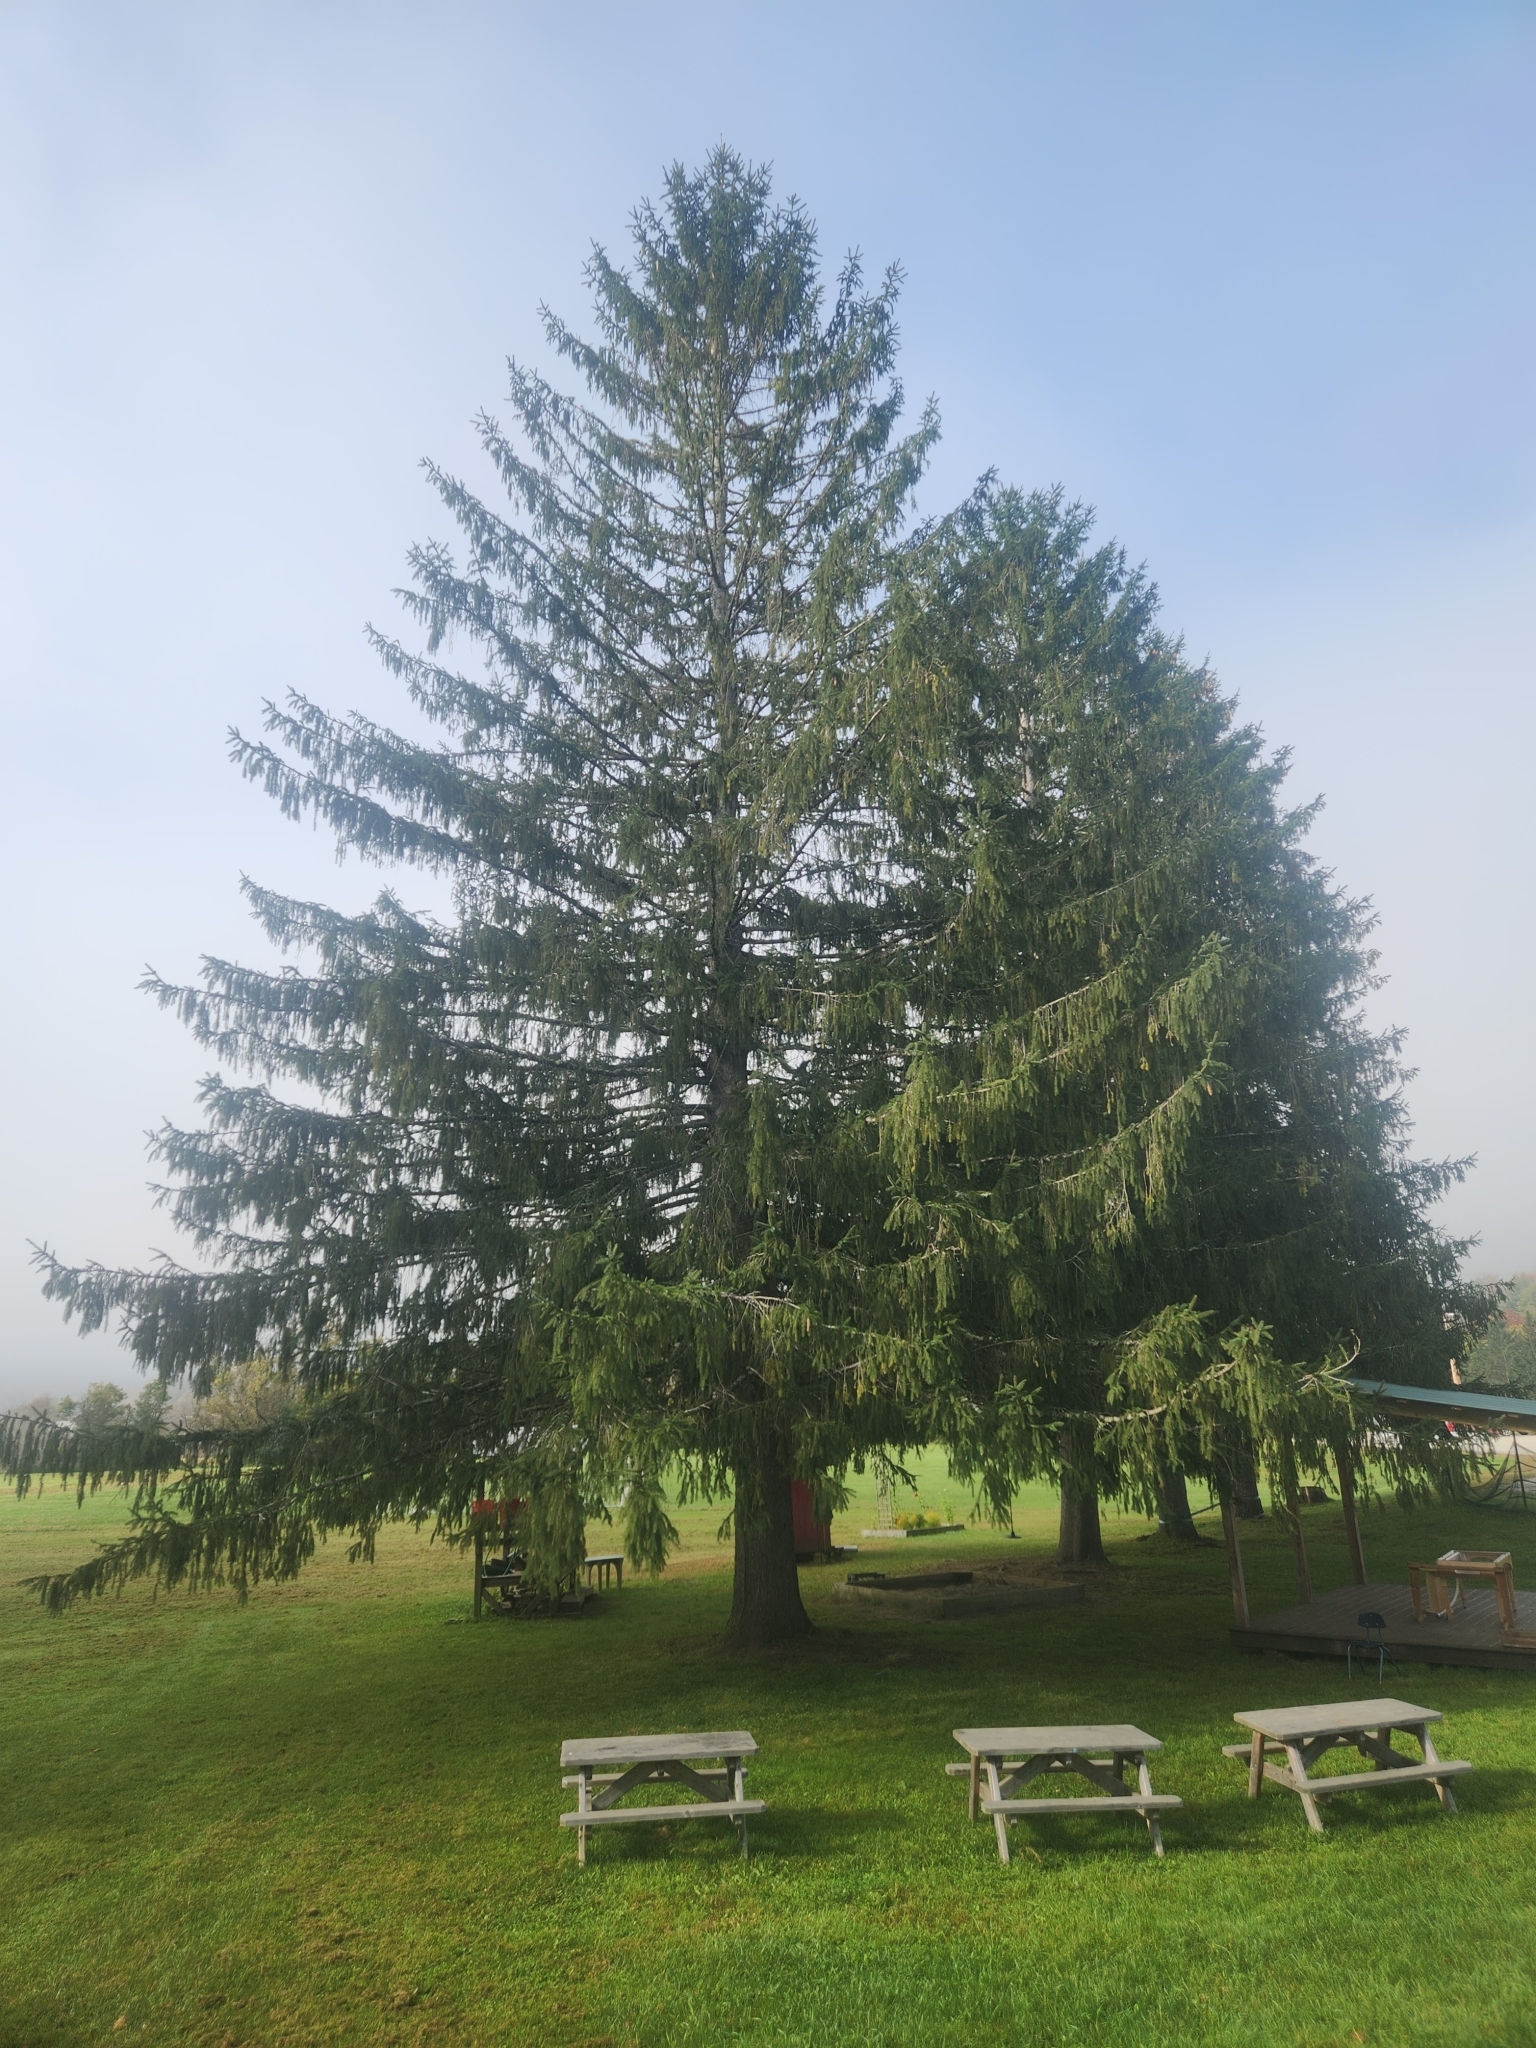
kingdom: Plantae
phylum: Tracheophyta
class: Pinopsida
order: Pinales
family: Pinaceae
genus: Picea
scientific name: Picea abies
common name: Norway spruce
